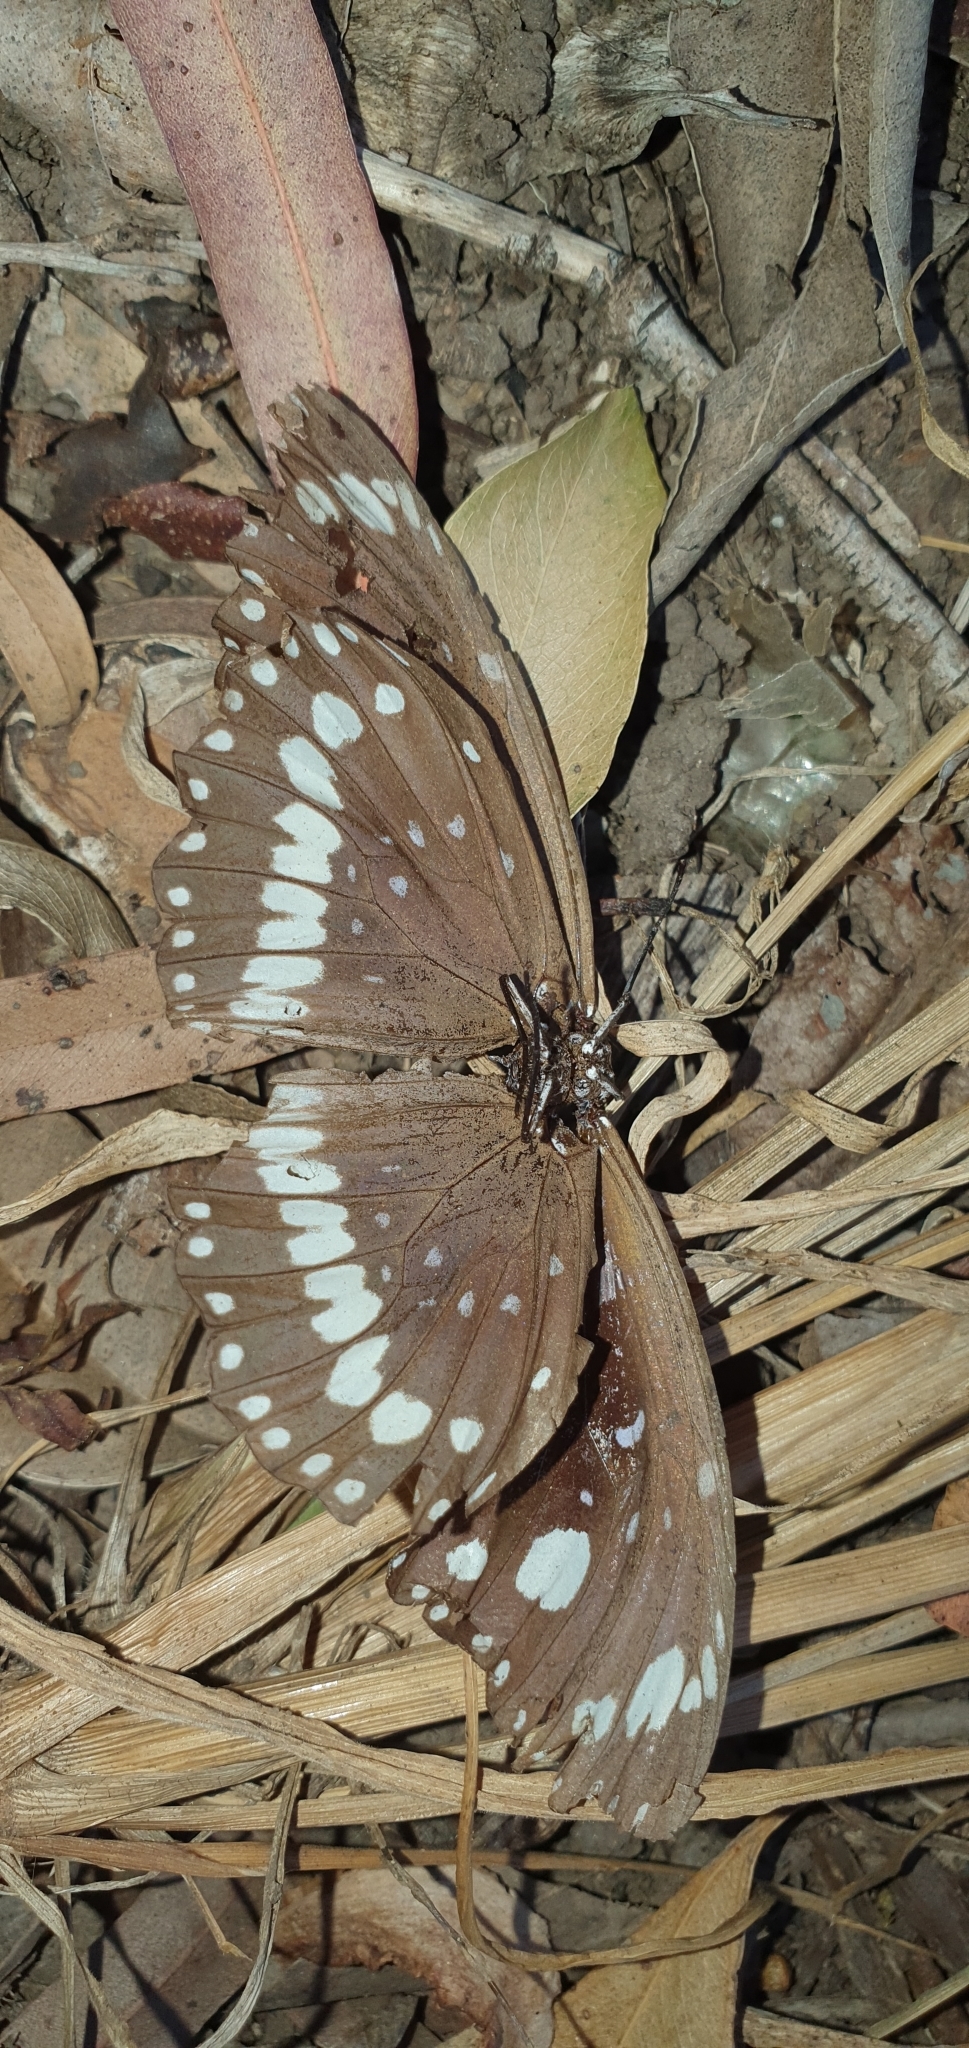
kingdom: Animalia
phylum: Arthropoda
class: Insecta
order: Lepidoptera
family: Nymphalidae
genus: Euploea
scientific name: Euploea core
